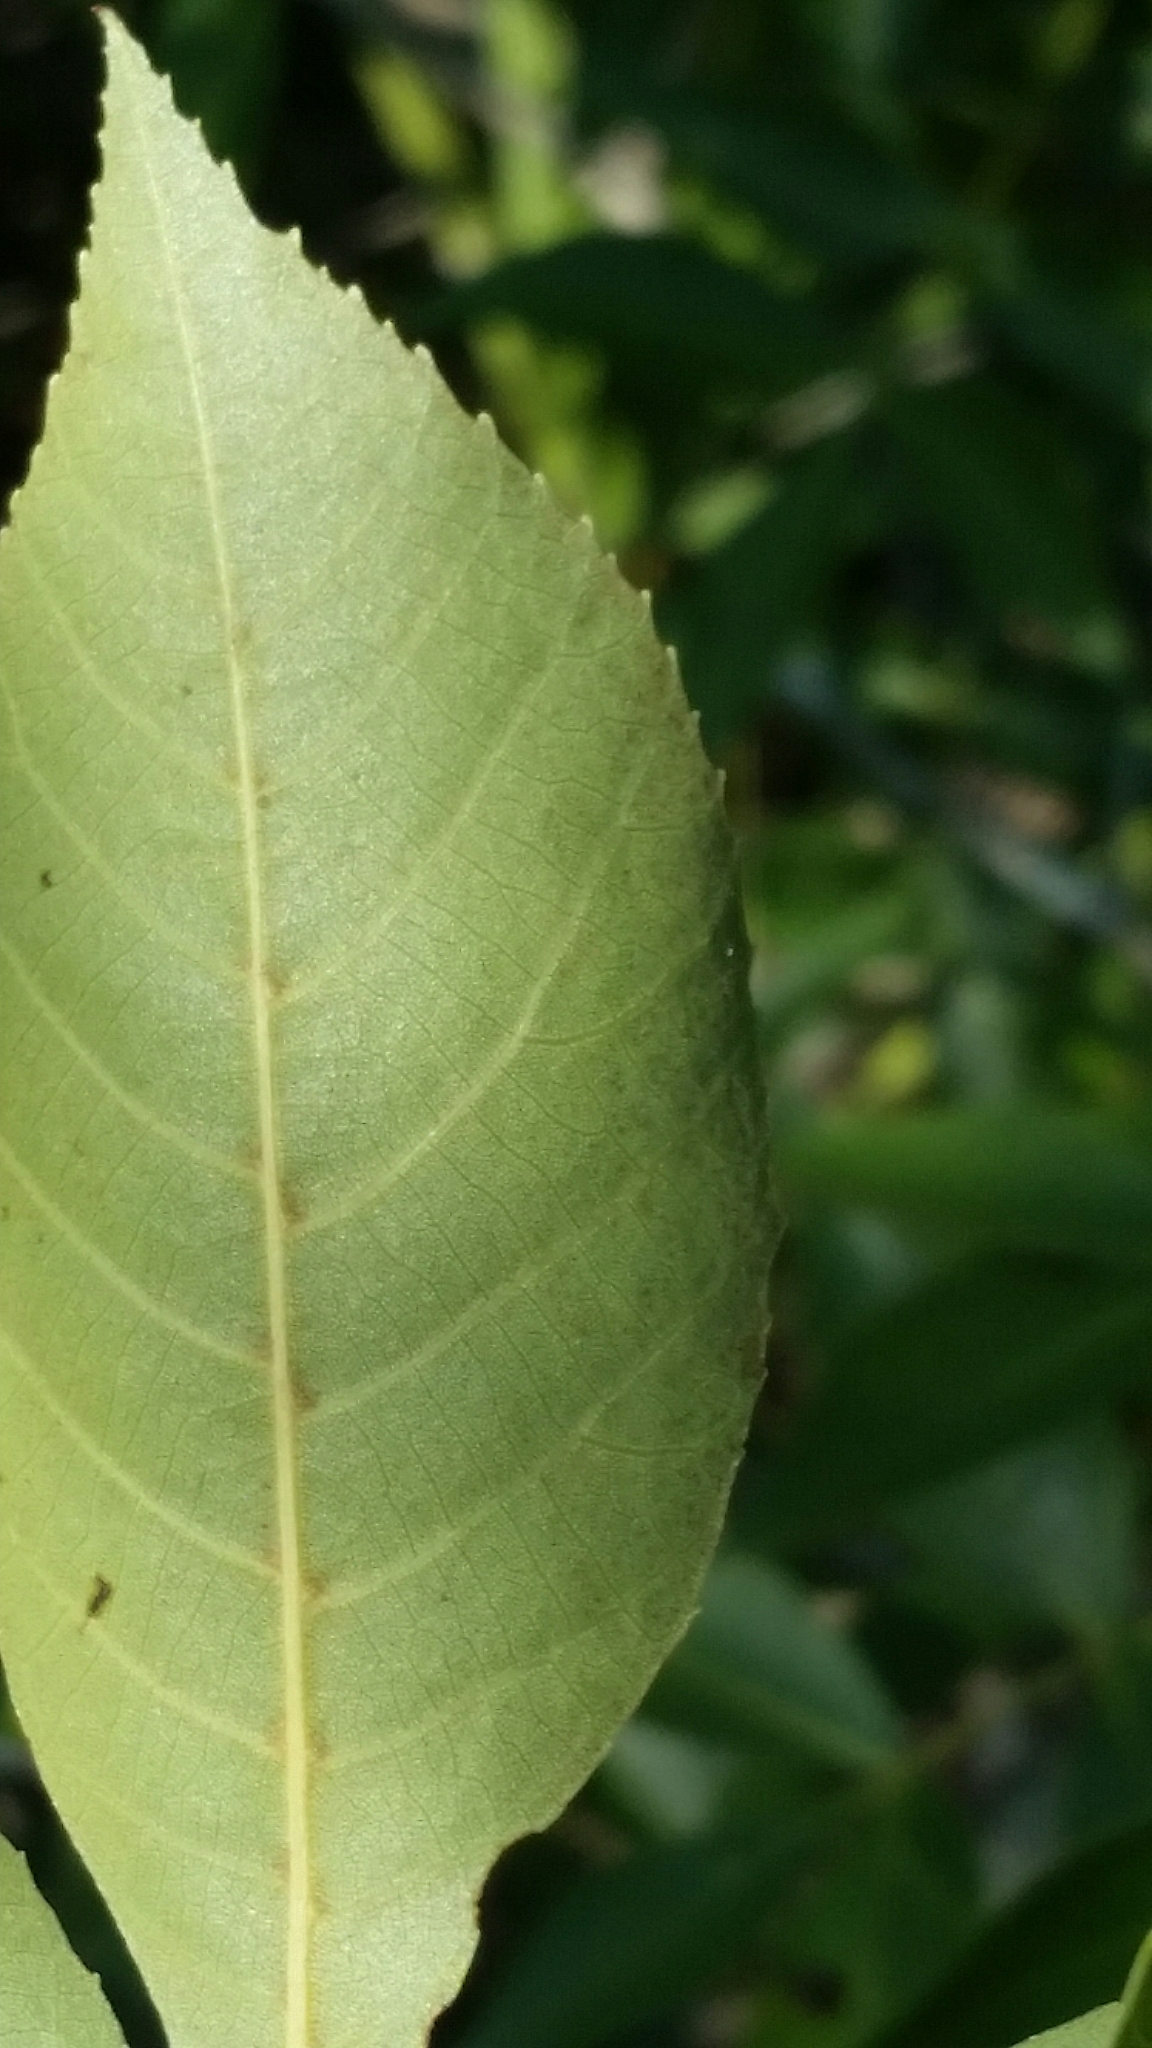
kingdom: Plantae
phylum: Tracheophyta
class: Magnoliopsida
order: Fagales
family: Juglandaceae
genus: Carya
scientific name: Carya floridana
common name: Scrub hickory
